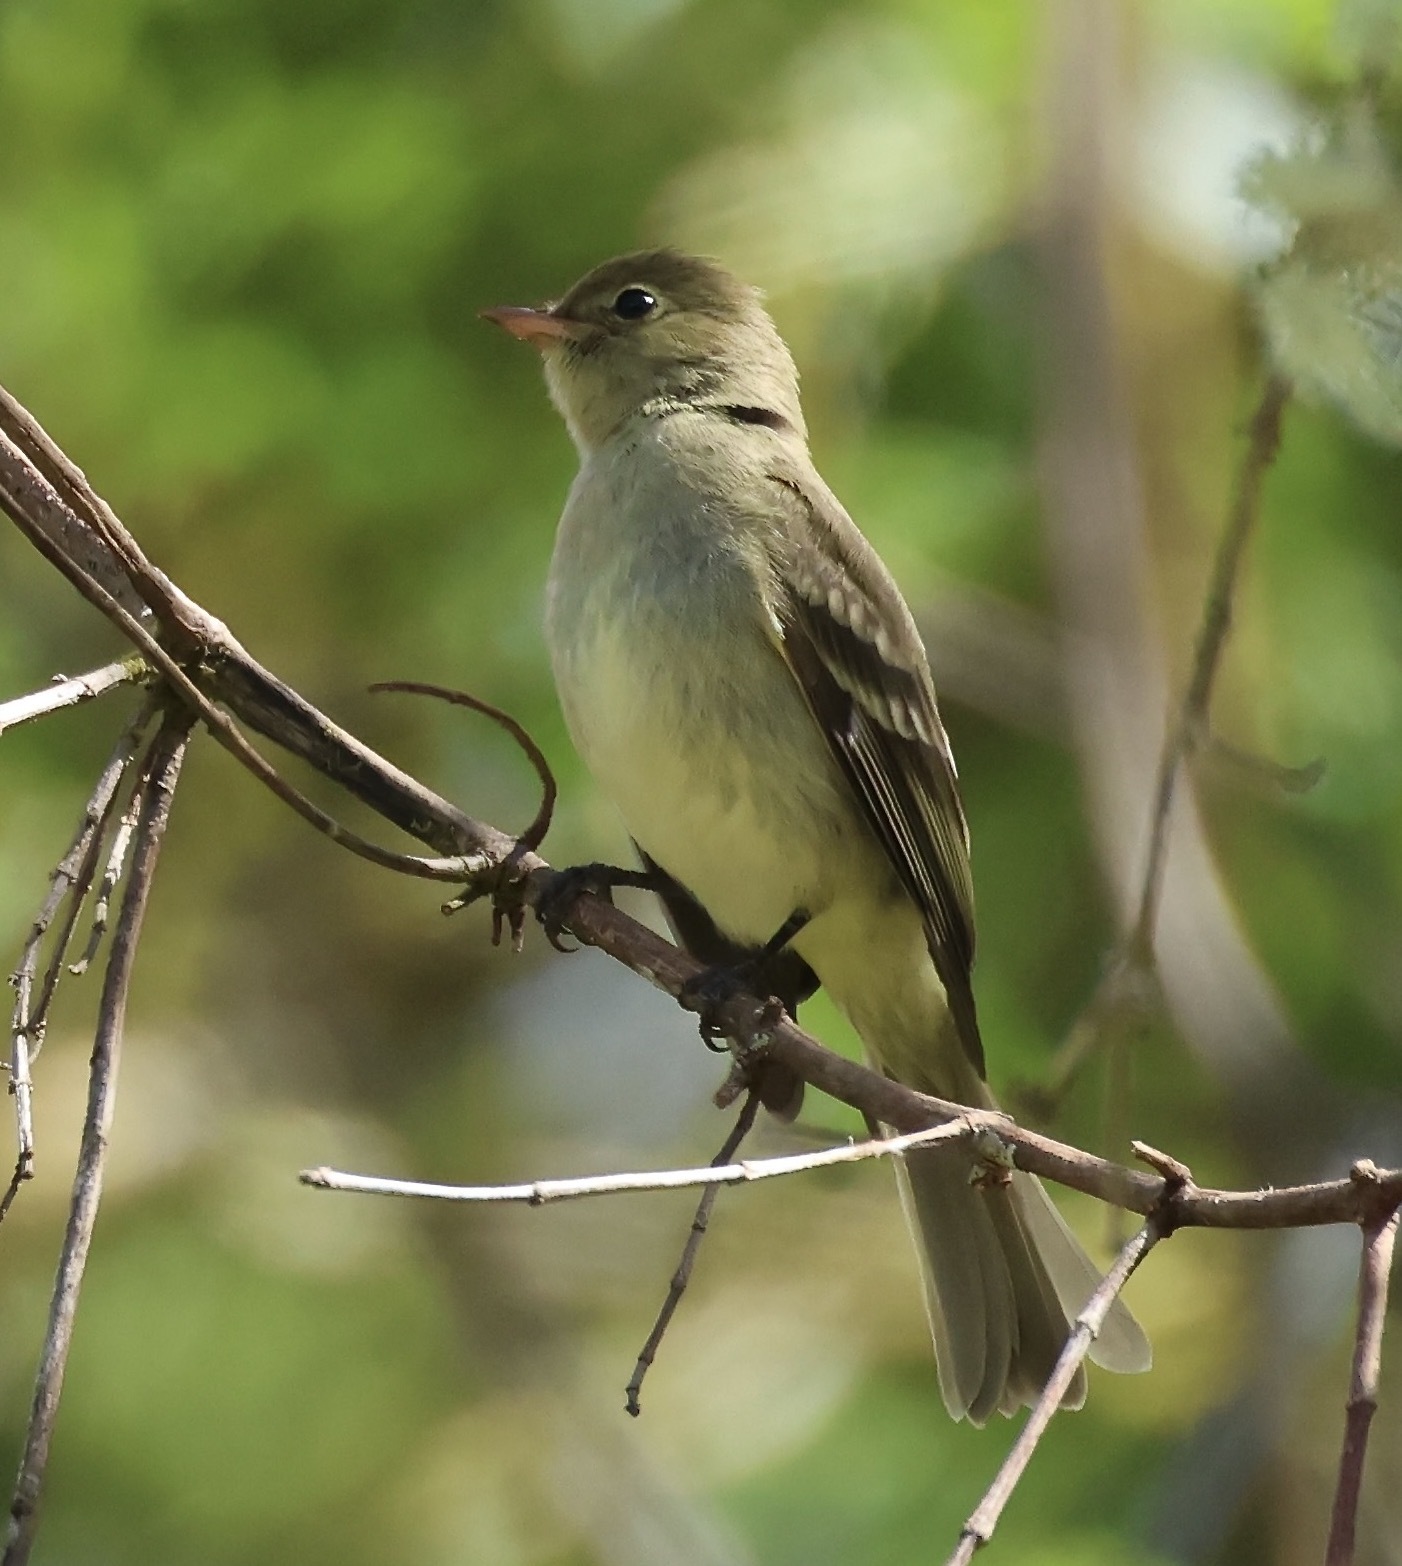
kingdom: Animalia
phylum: Chordata
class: Aves
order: Passeriformes
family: Tyrannidae
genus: Elaenia
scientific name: Elaenia frantzii
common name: Mountain elaenia
